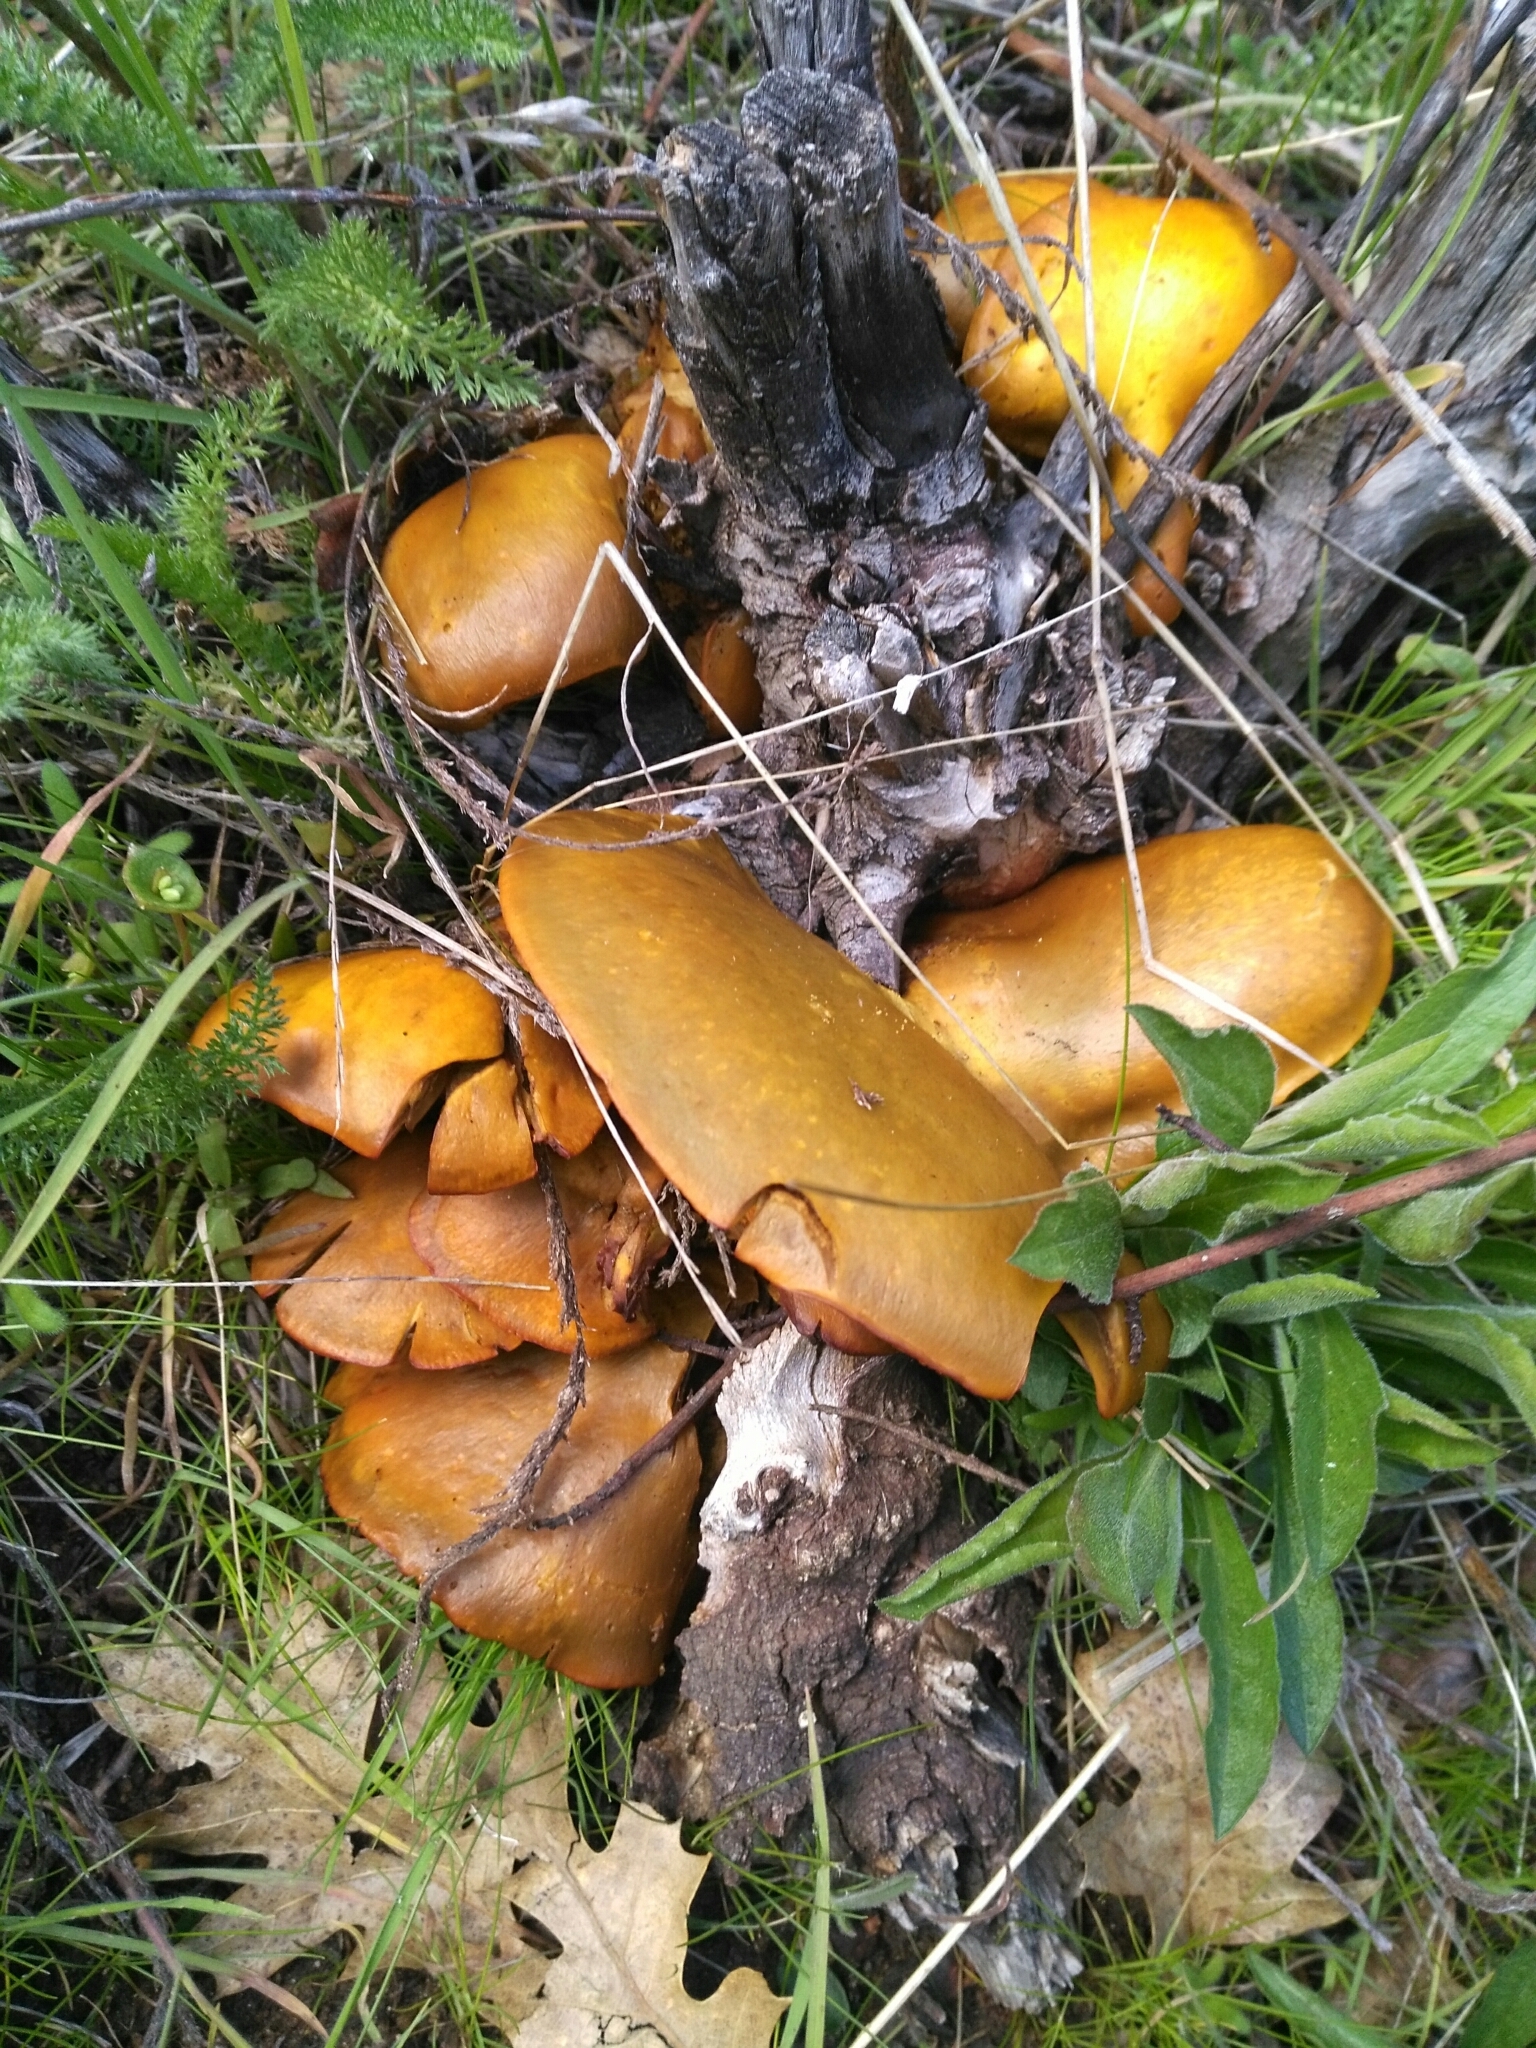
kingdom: Fungi
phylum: Basidiomycota
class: Agaricomycetes
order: Agaricales
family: Omphalotaceae
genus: Omphalotus
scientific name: Omphalotus olivascens
